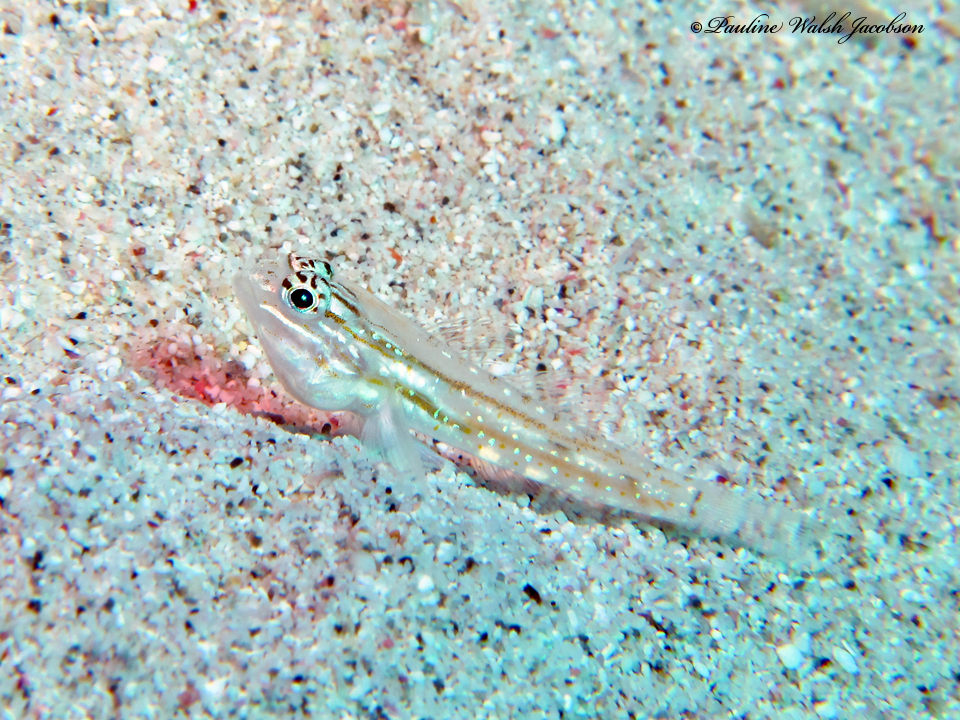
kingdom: Animalia
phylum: Chordata
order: Perciformes
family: Gobiidae
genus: Coryphopterus
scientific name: Coryphopterus venezuelae
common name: Sand-canyon goby
